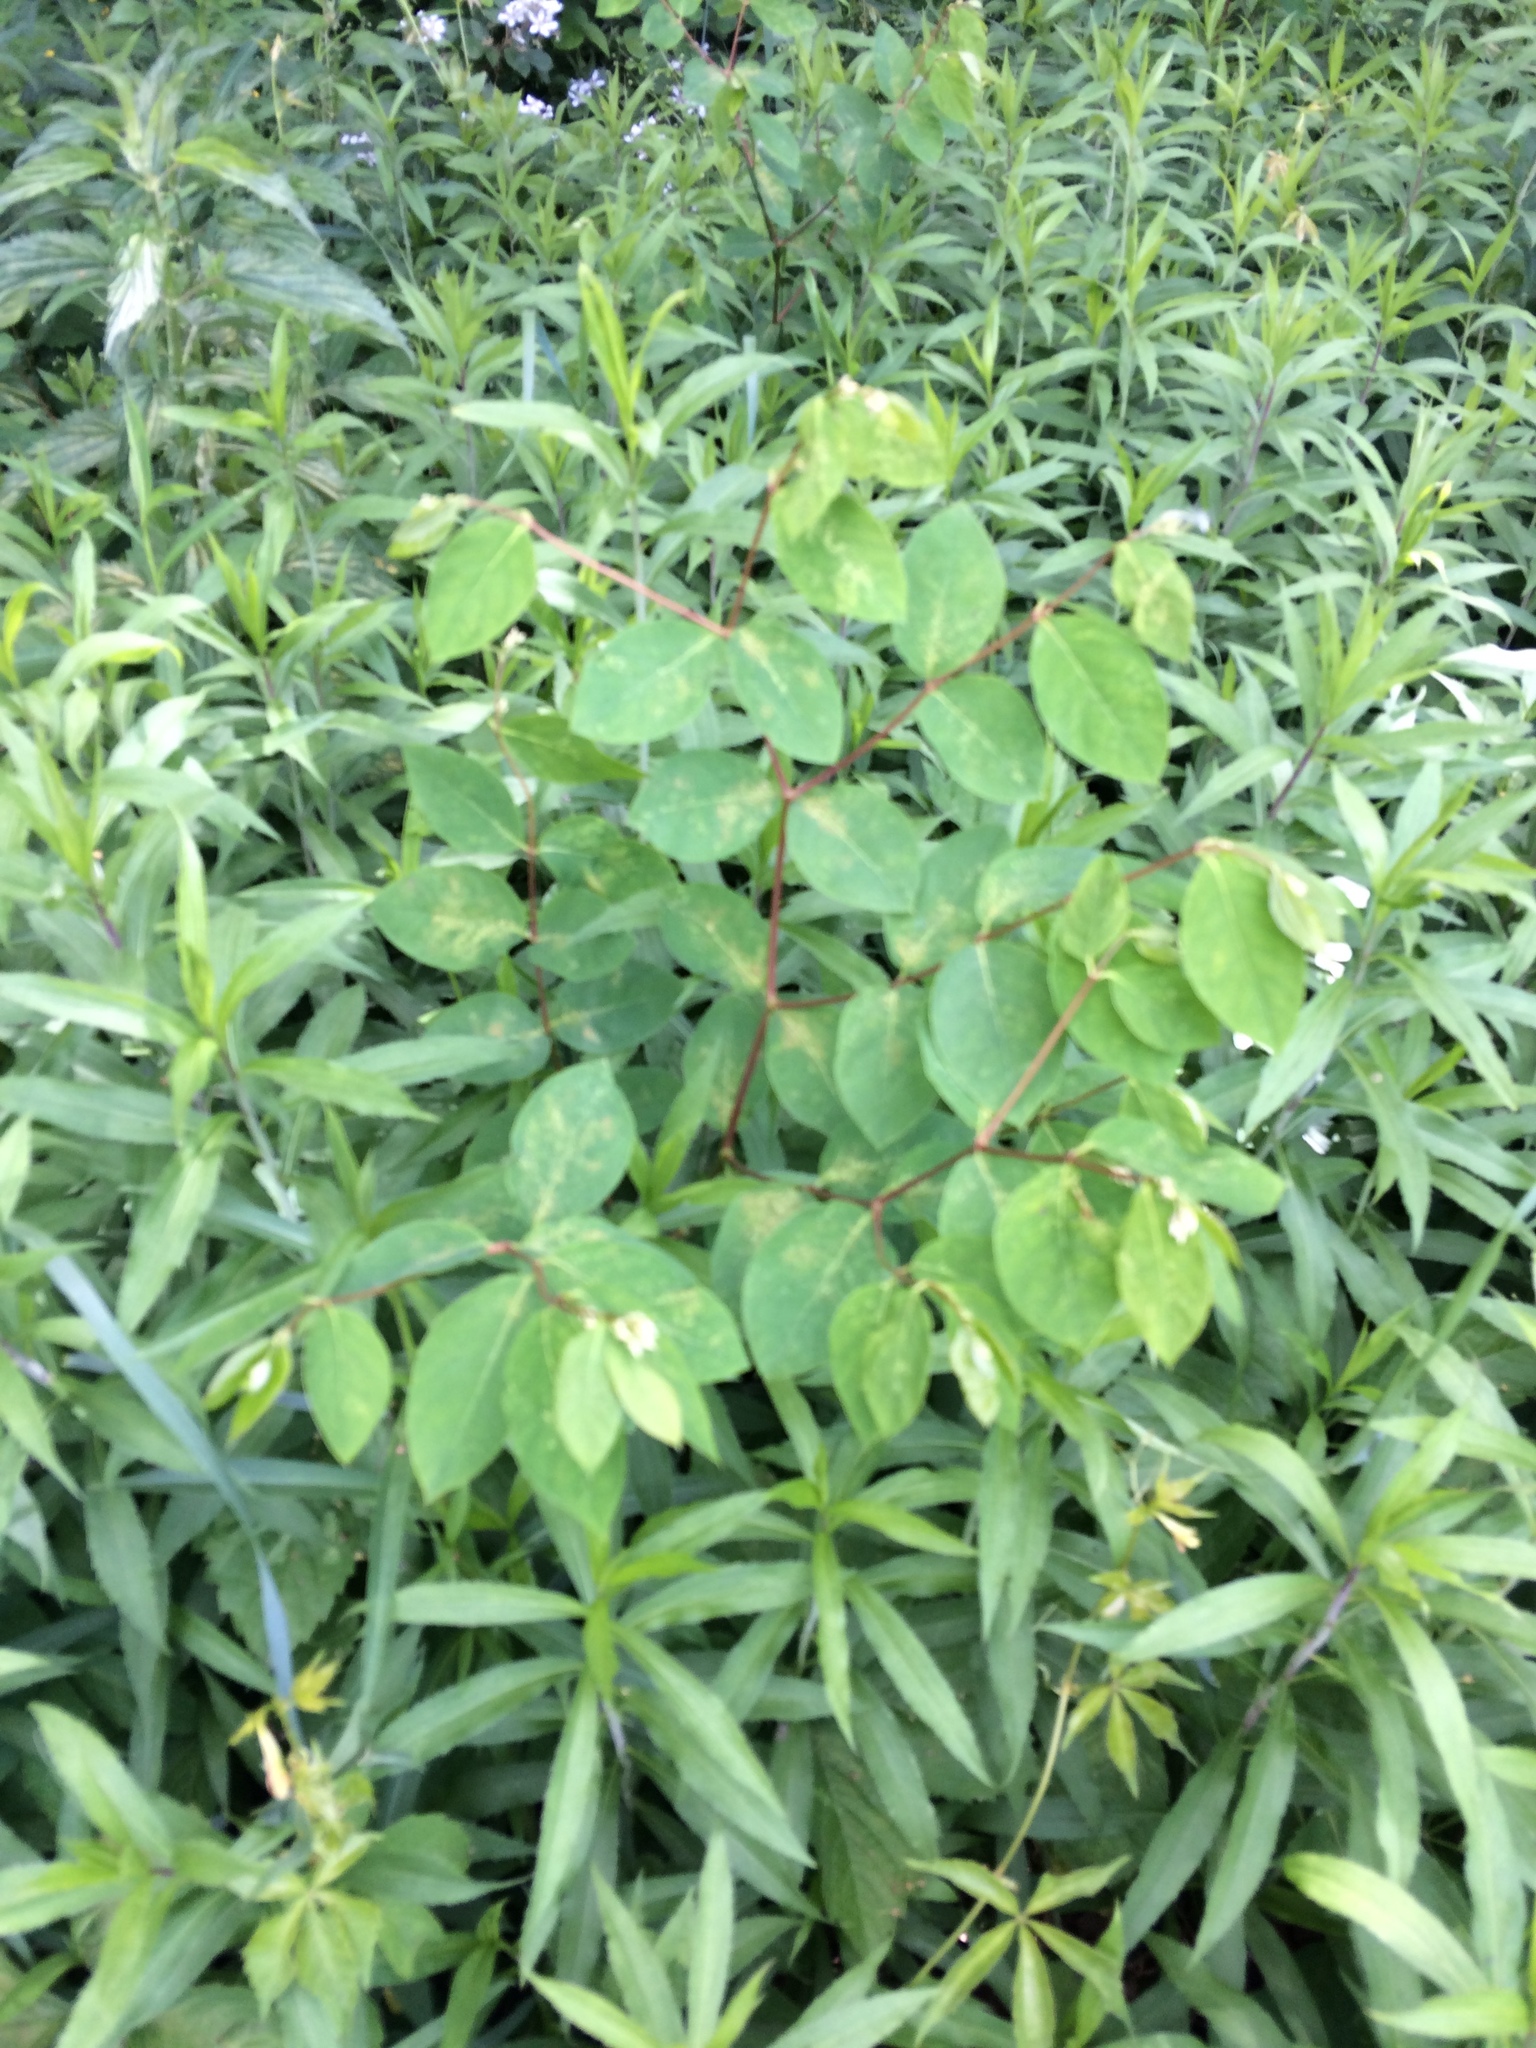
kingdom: Plantae
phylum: Tracheophyta
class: Magnoliopsida
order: Gentianales
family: Apocynaceae
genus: Apocynum
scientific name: Apocynum androsaemifolium
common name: Spreading dogbane
